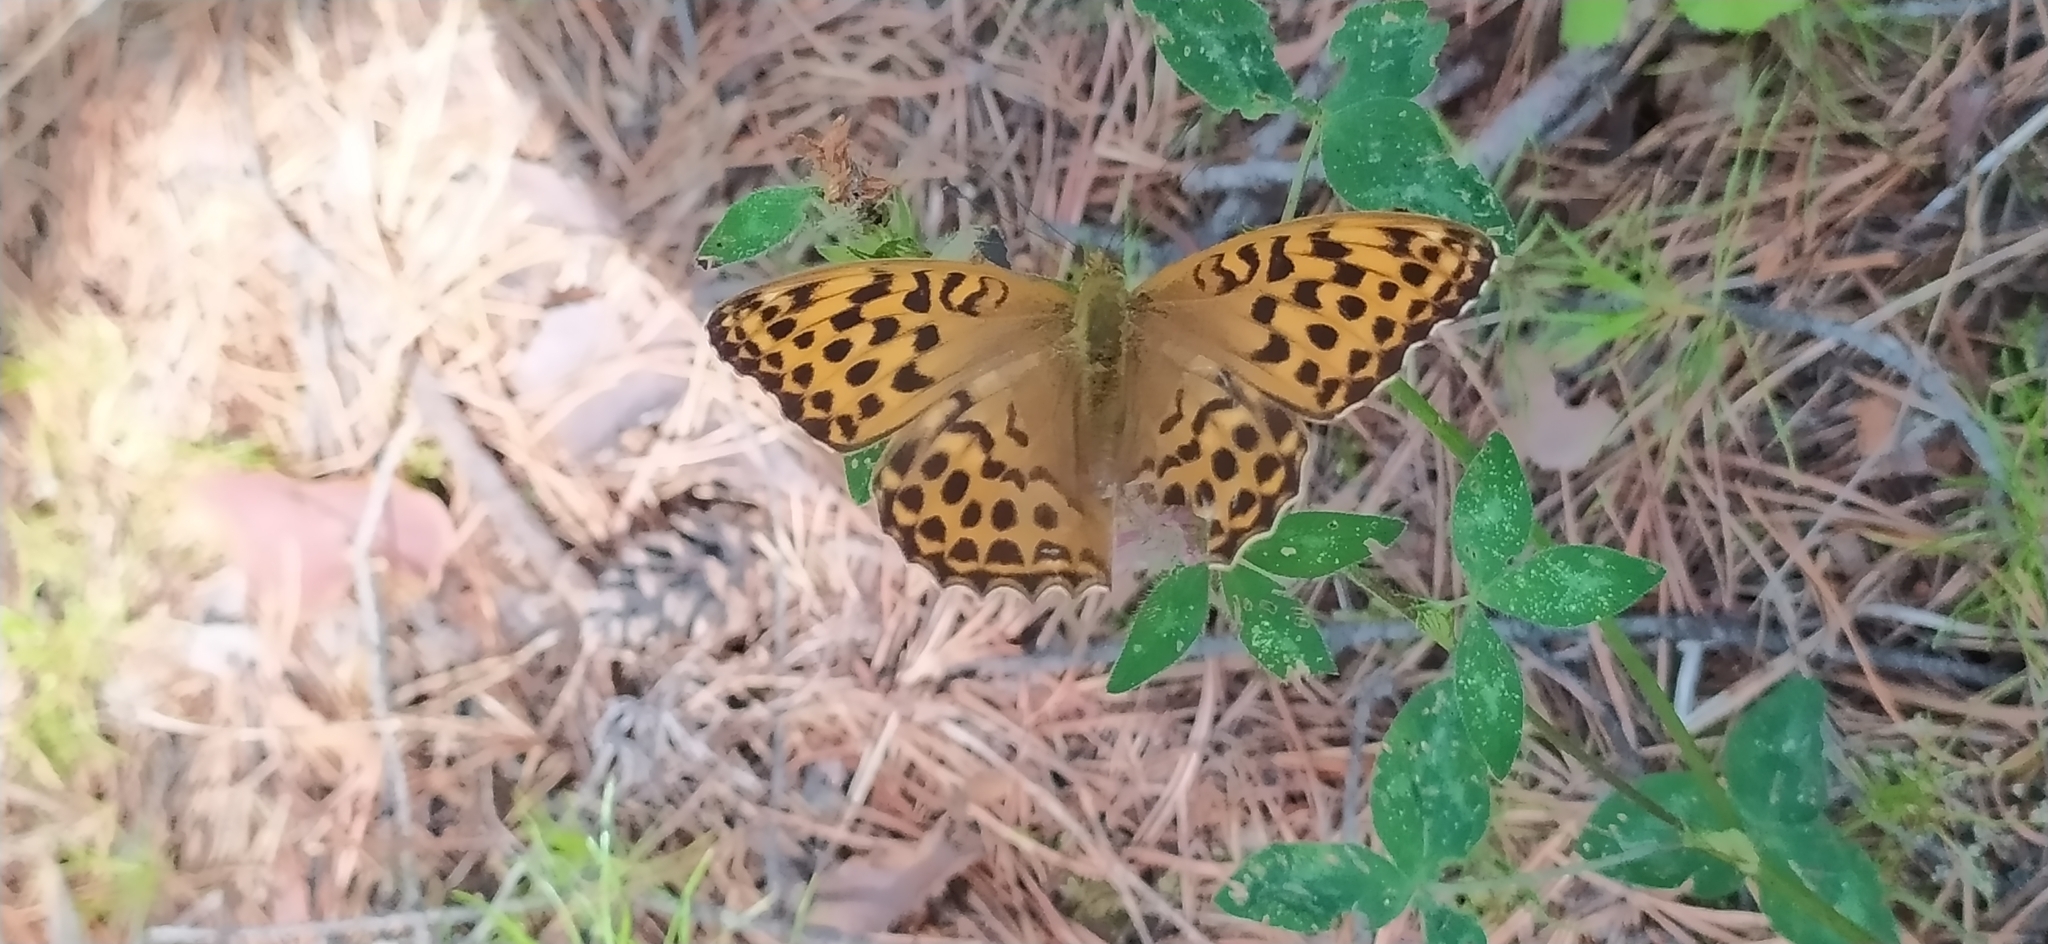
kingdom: Animalia
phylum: Arthropoda
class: Insecta
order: Lepidoptera
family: Nymphalidae
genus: Argynnis
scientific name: Argynnis paphia
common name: Silver-washed fritillary
